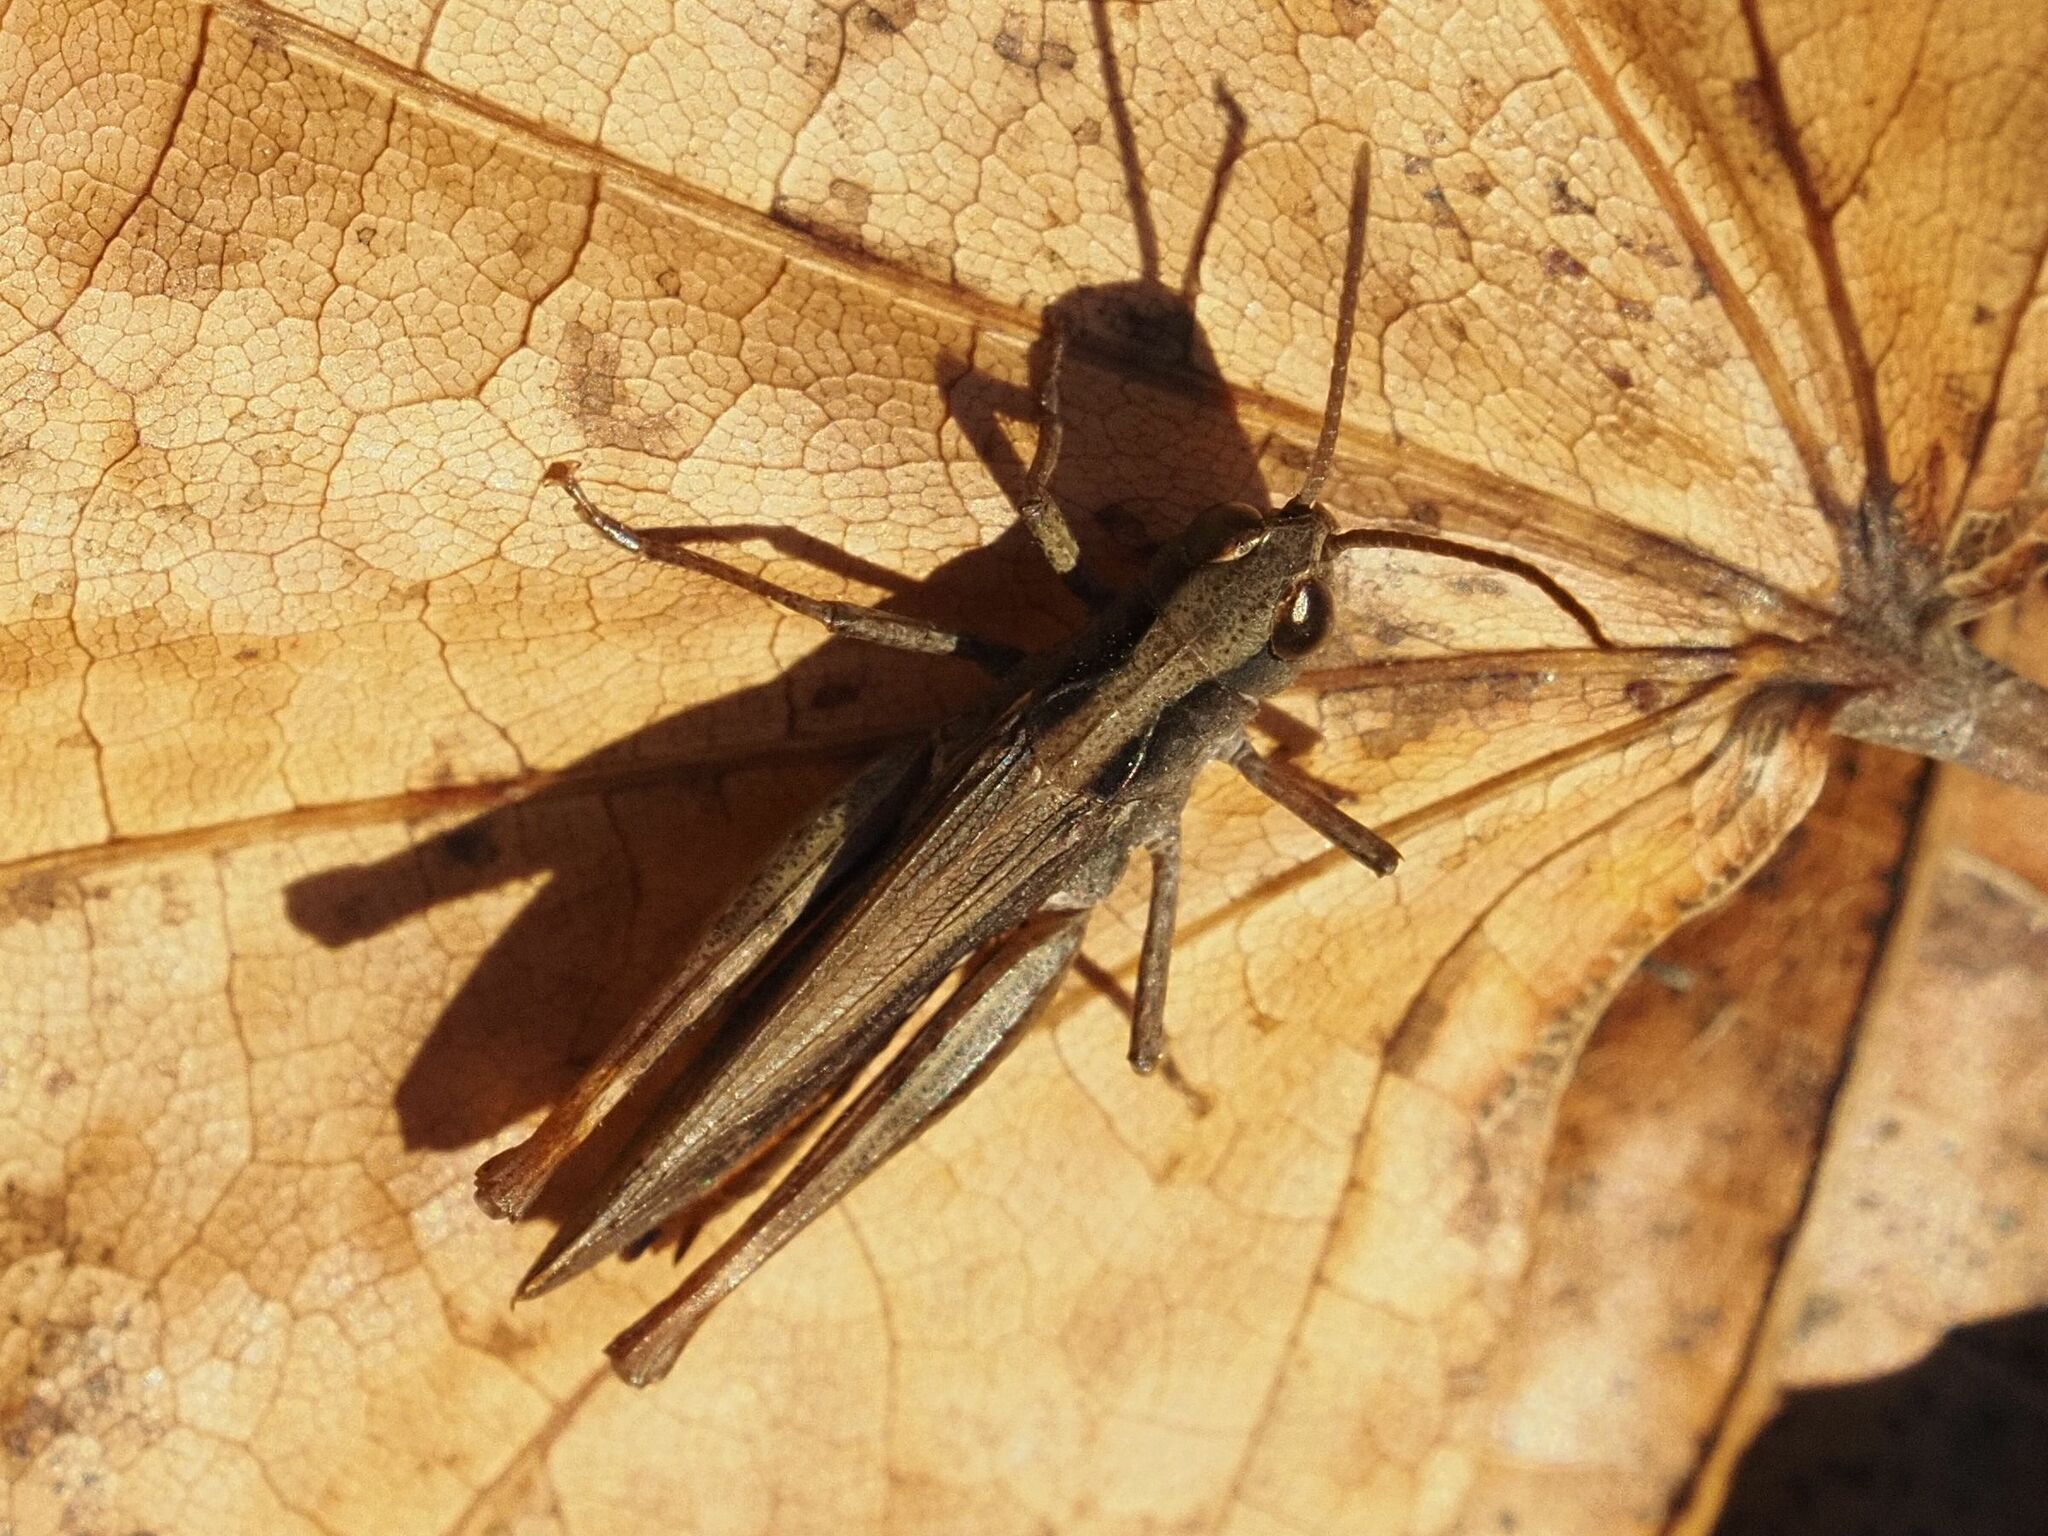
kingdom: Animalia
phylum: Arthropoda
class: Insecta
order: Orthoptera
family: Acrididae
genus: Chorthippus
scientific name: Chorthippus vagans
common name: Heath grasshopper
